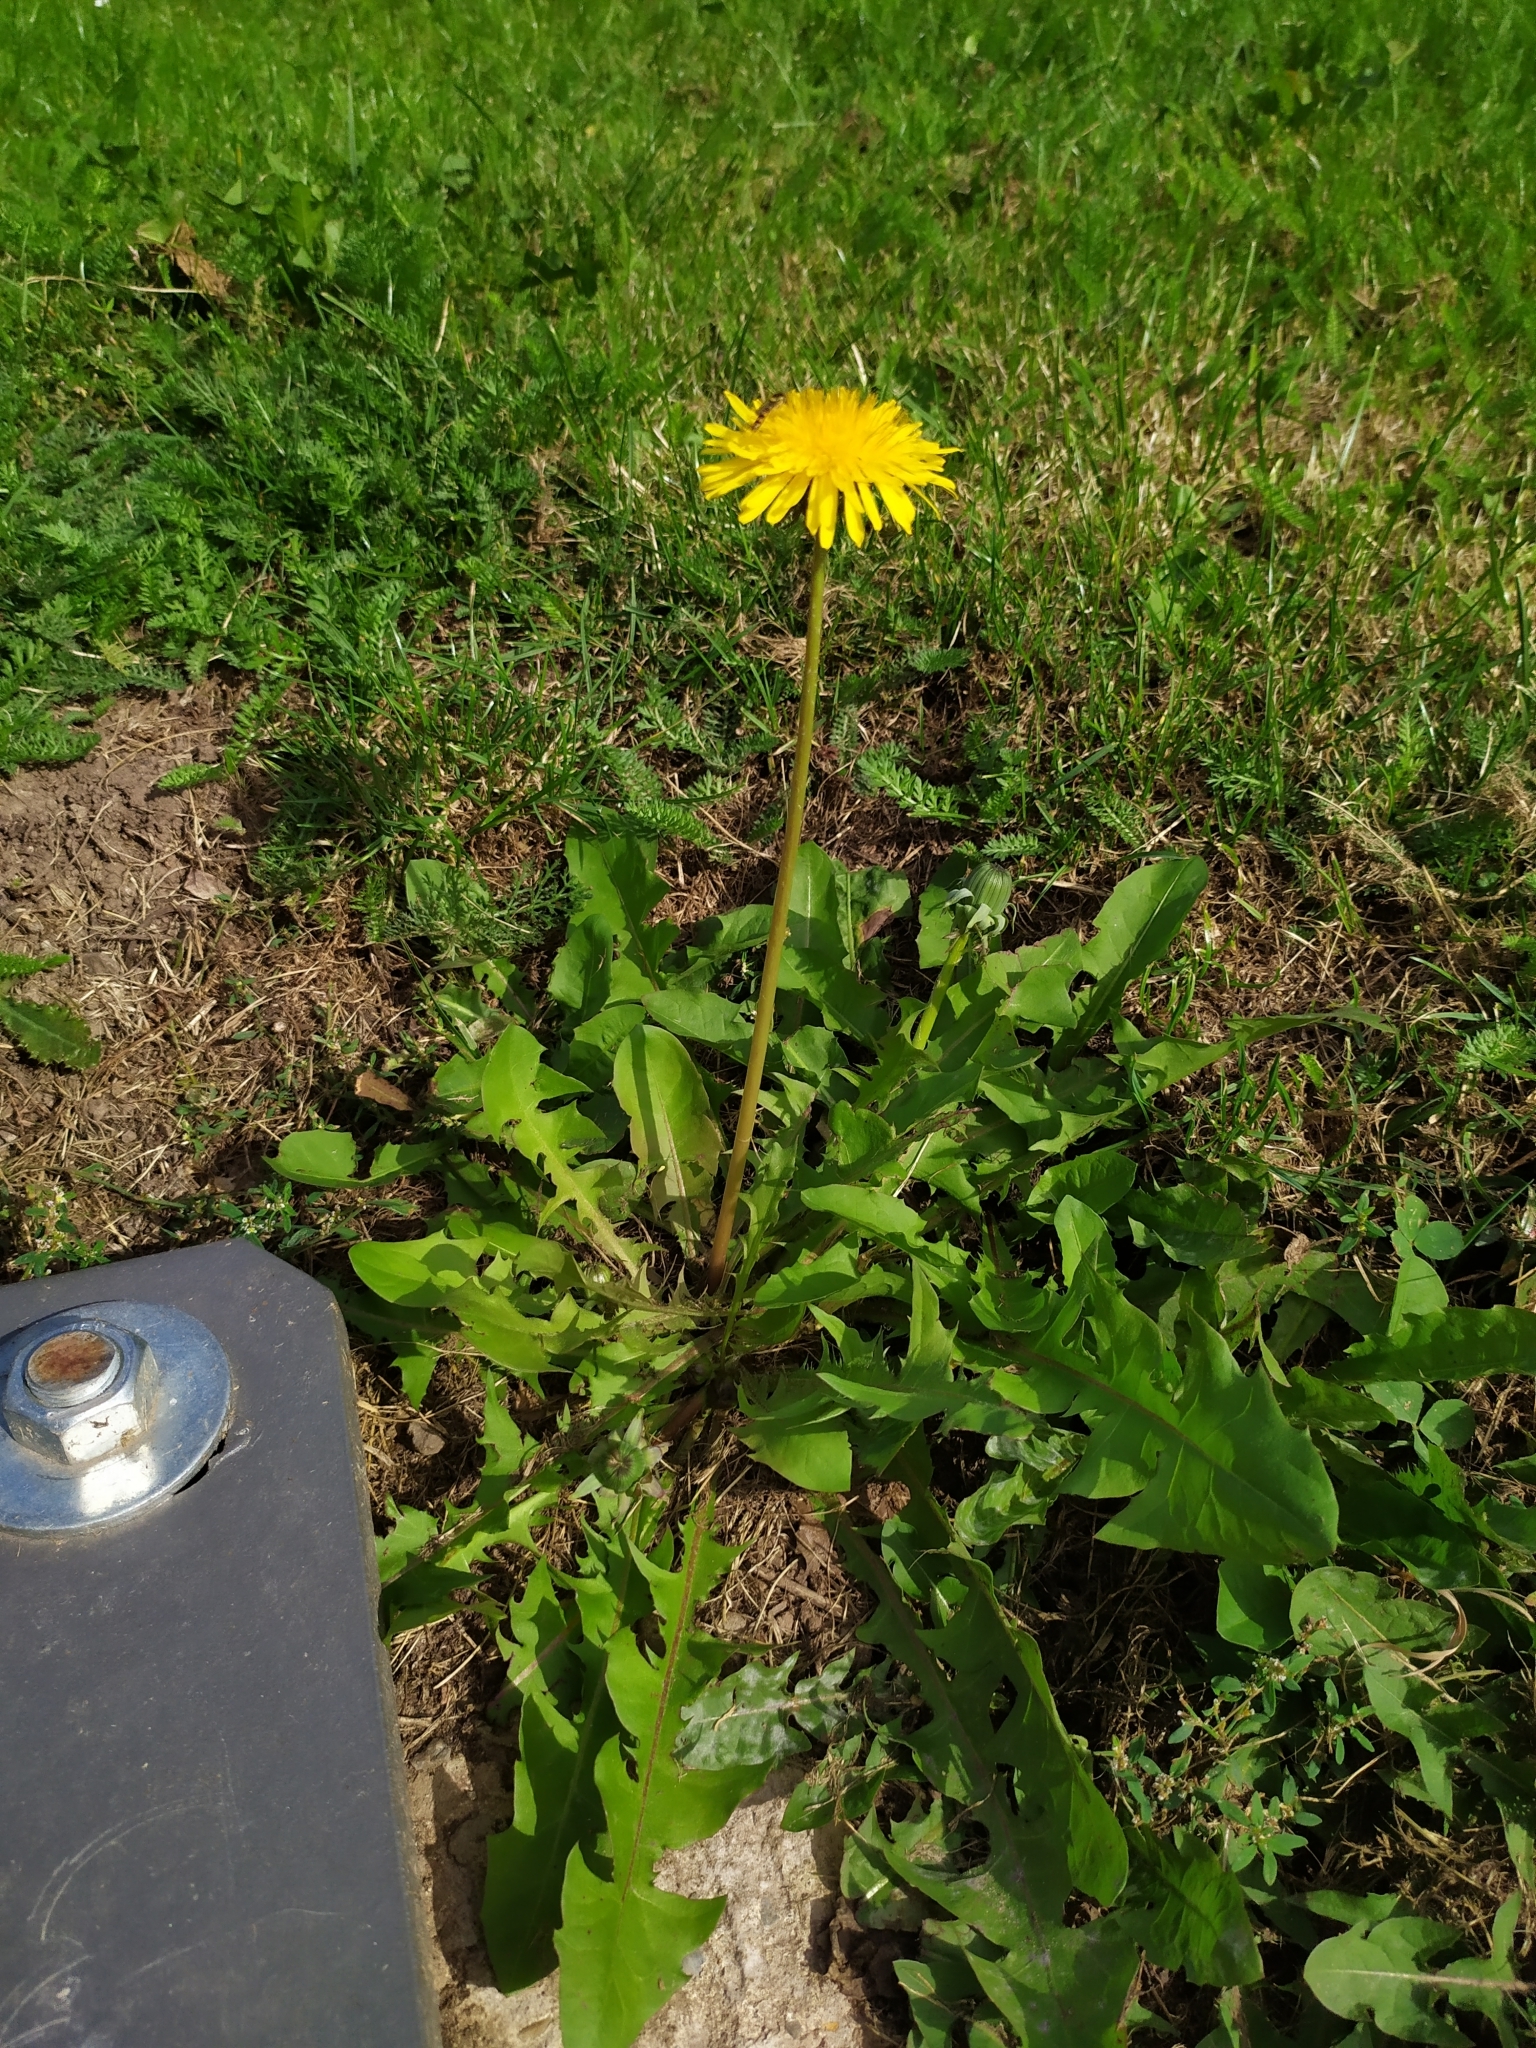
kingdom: Plantae
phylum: Tracheophyta
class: Magnoliopsida
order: Asterales
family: Asteraceae
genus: Taraxacum
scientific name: Taraxacum officinale
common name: Common dandelion
